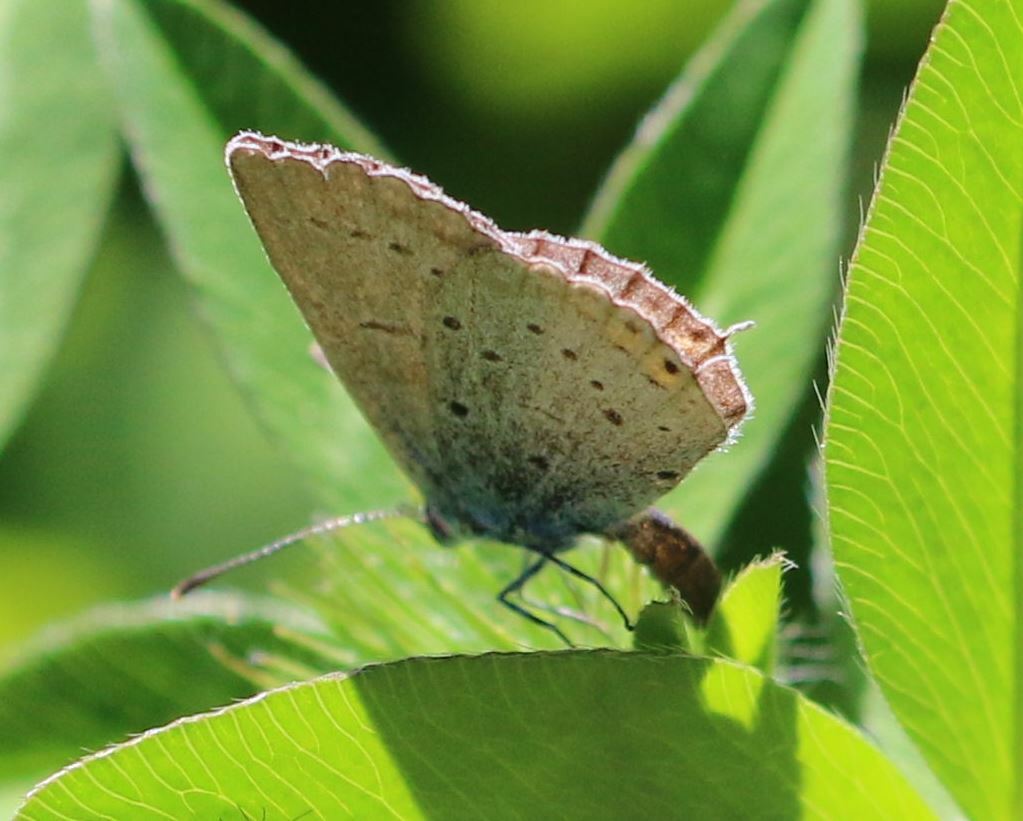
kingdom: Animalia
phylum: Arthropoda
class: Insecta
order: Lepidoptera
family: Lycaenidae
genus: Elkalyce
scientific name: Elkalyce argiades
